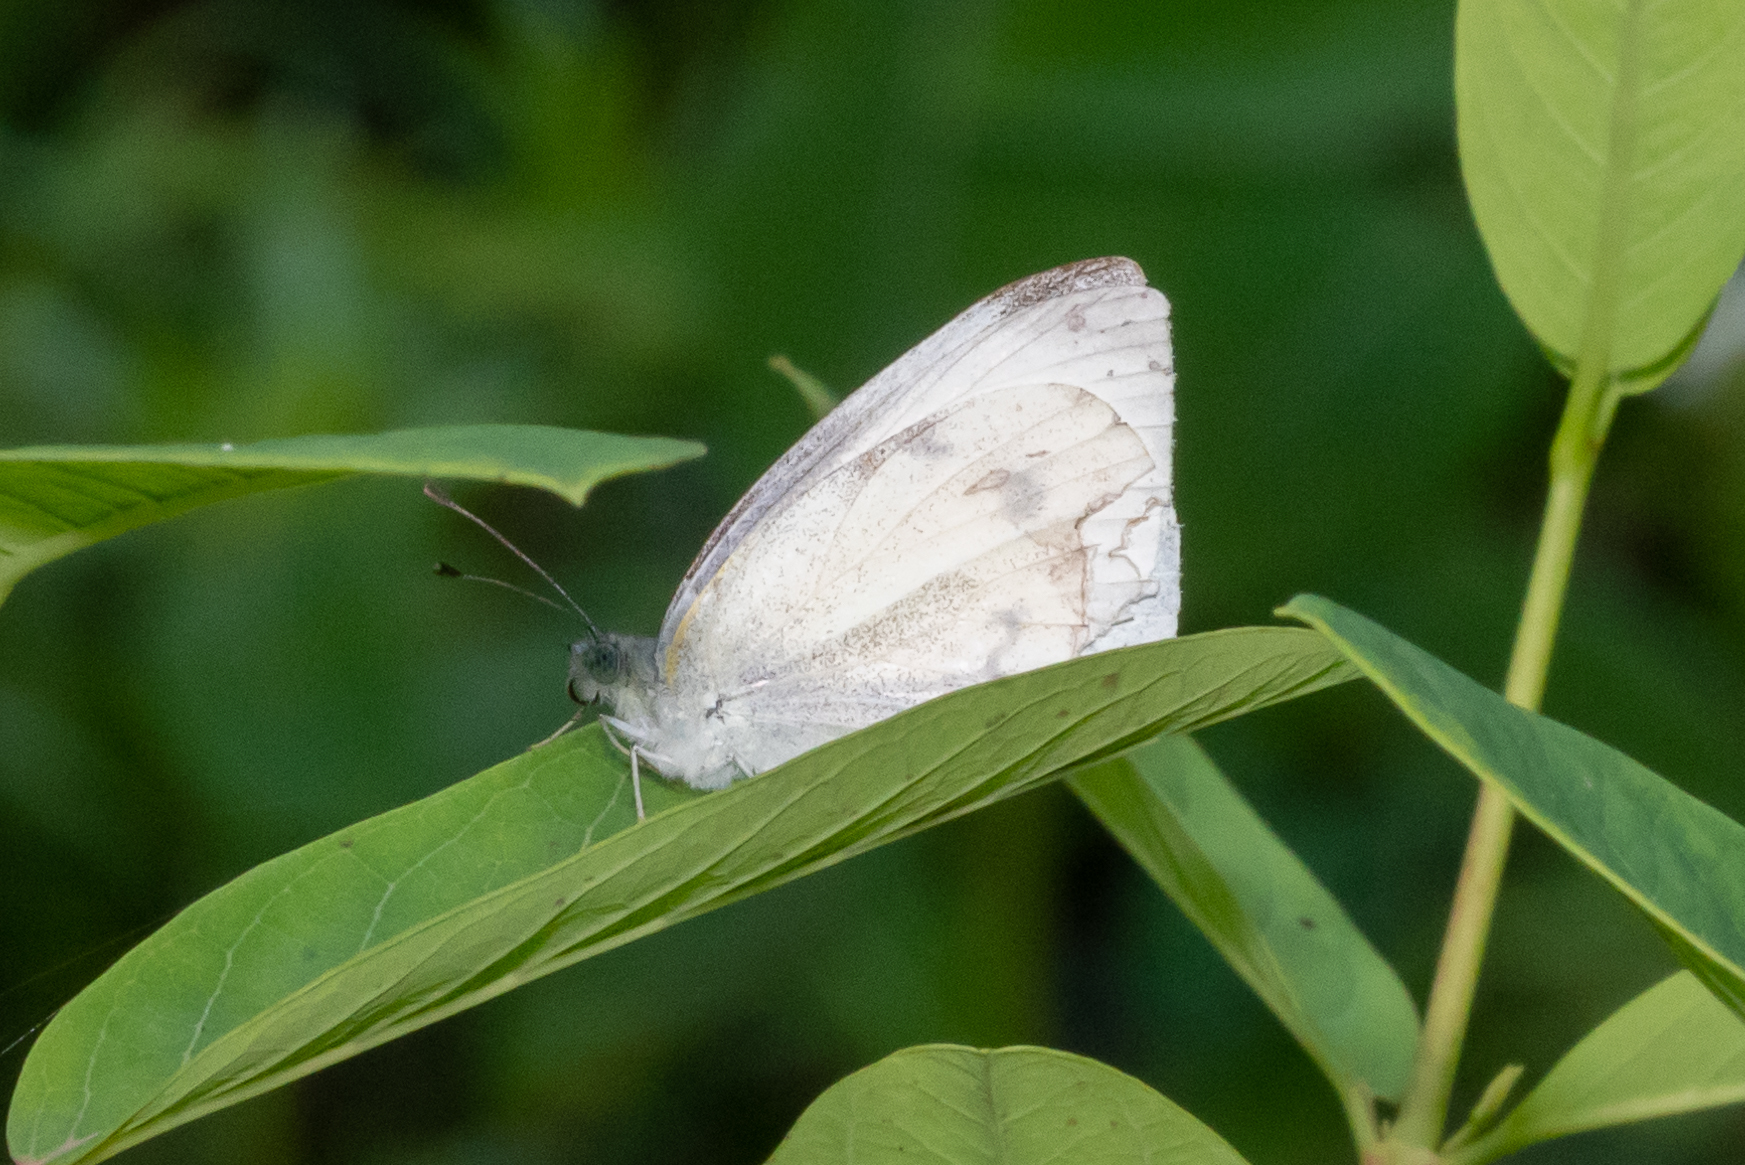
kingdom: Animalia
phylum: Arthropoda
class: Insecta
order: Lepidoptera
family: Pieridae
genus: Pieris
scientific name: Pieris rapae
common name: Small white
